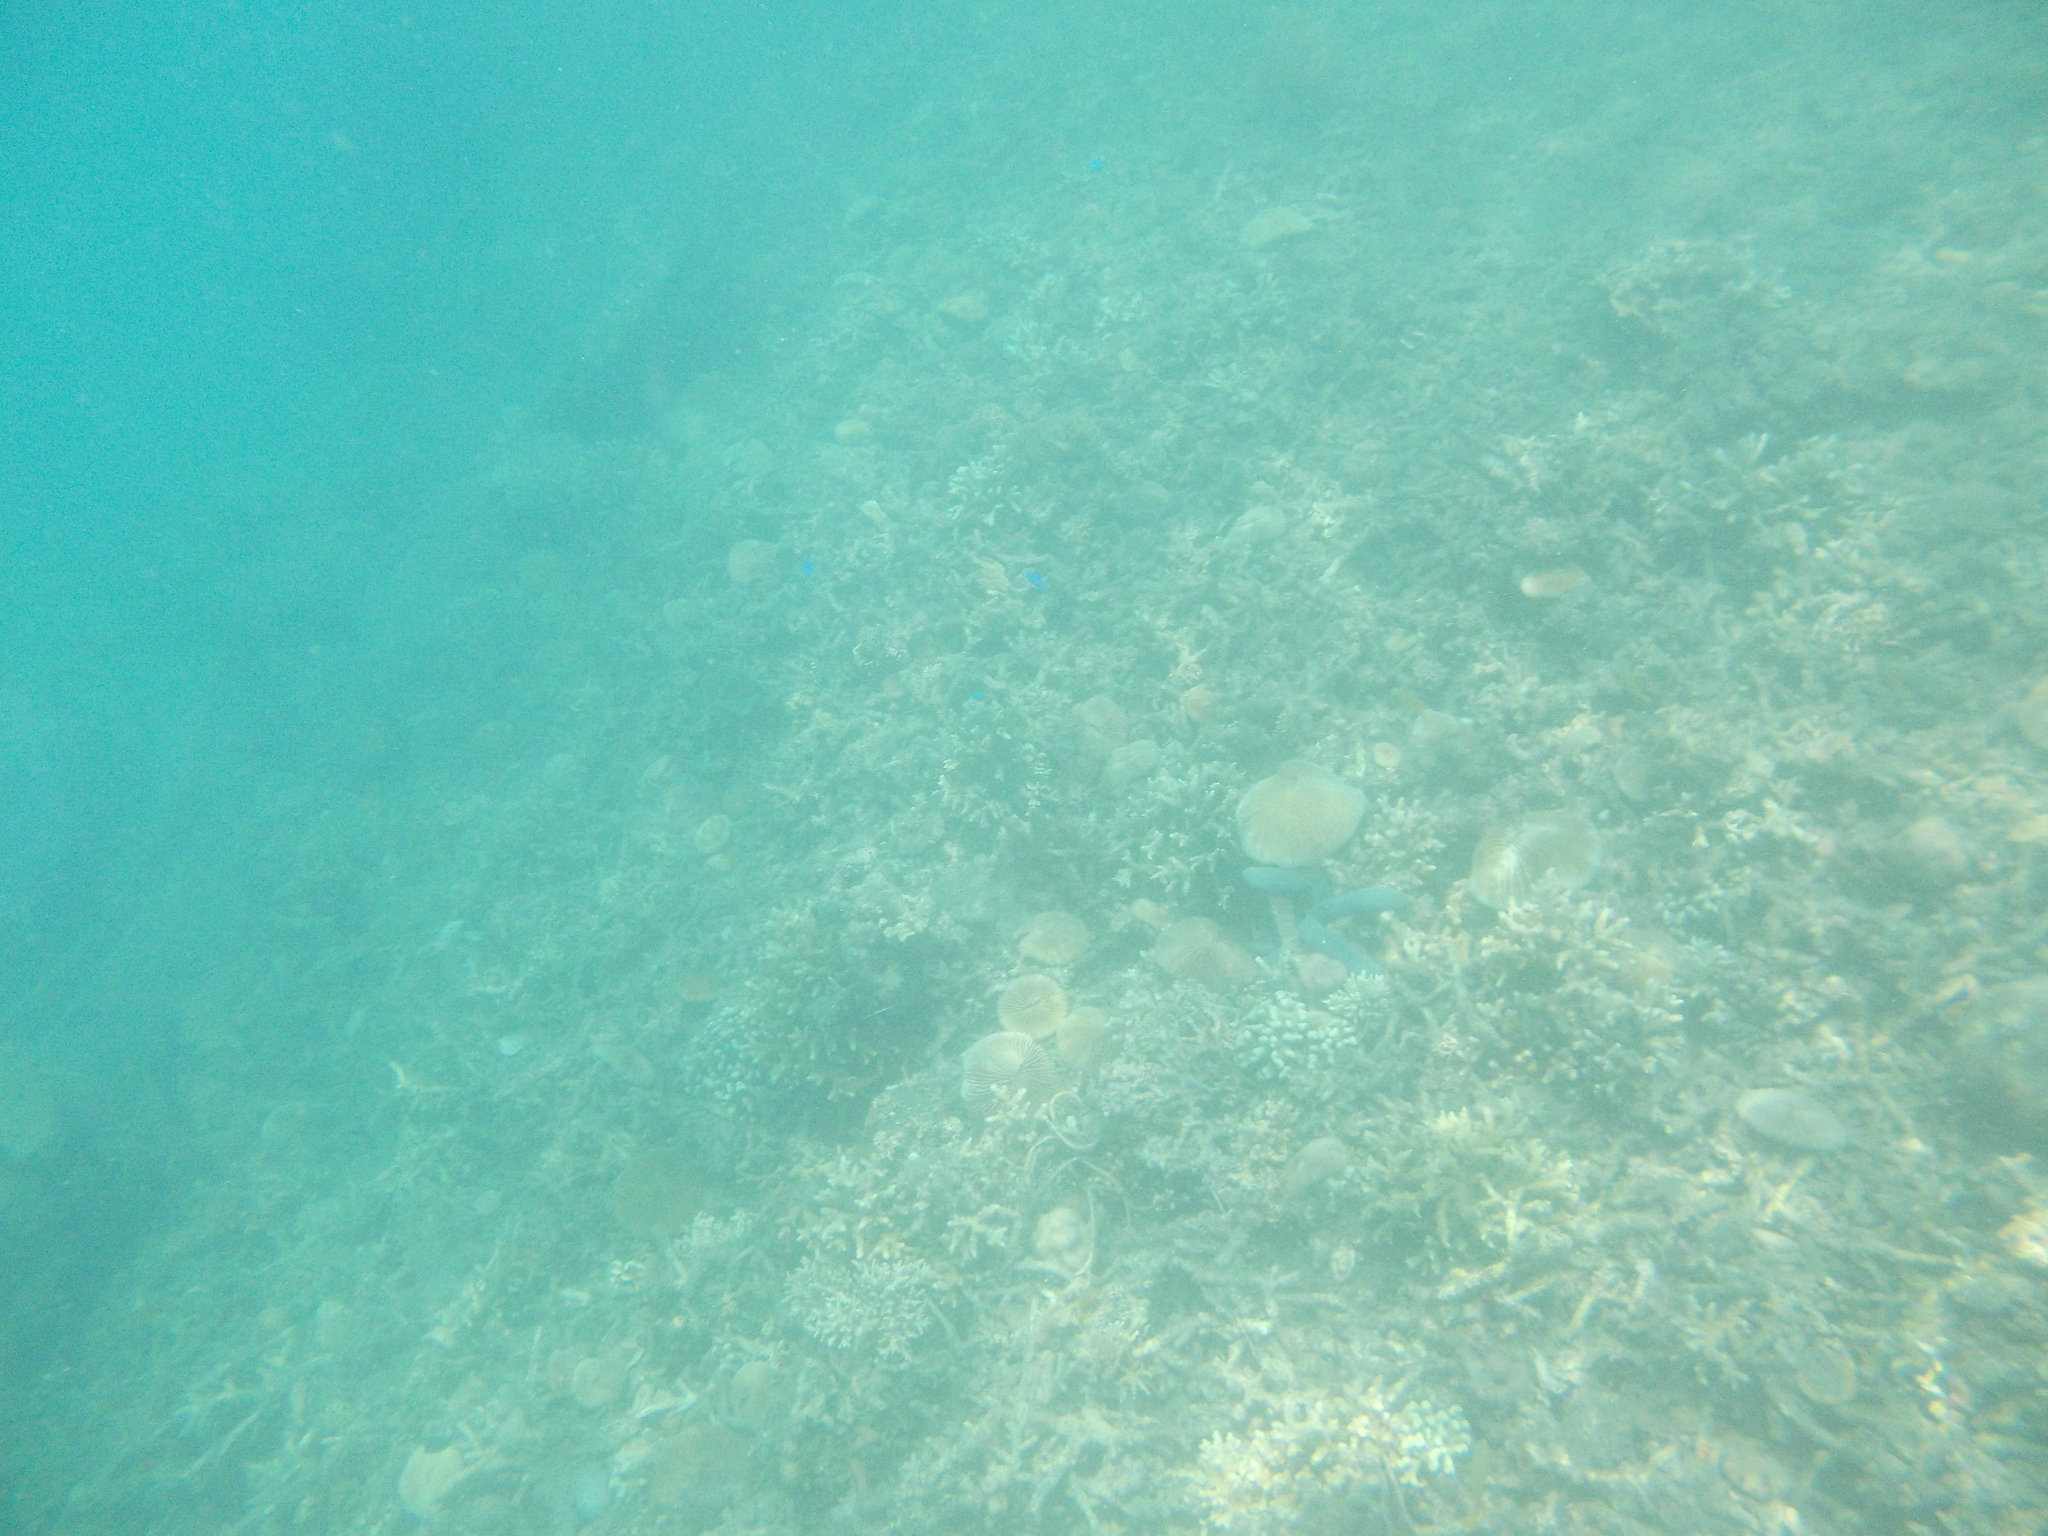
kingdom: Animalia
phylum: Echinodermata
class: Asteroidea
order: Valvatida
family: Ophidiasteridae
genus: Linckia
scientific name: Linckia laevigata
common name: Azure sea star
